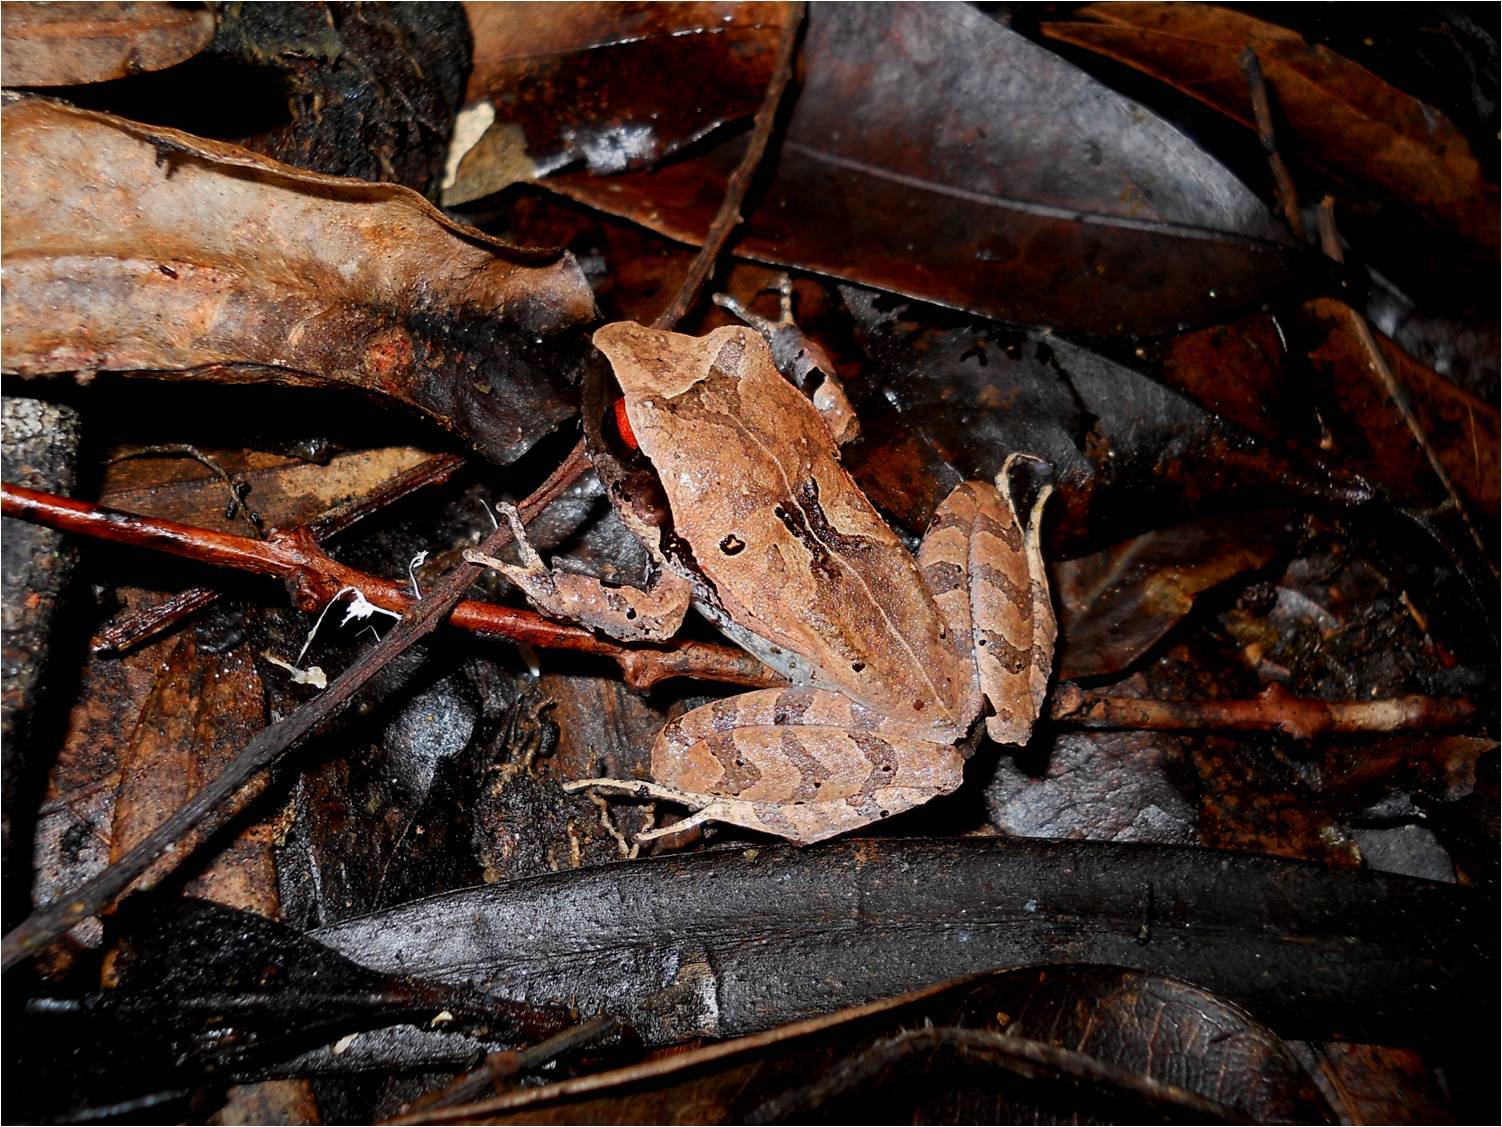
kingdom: Animalia
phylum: Chordata
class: Amphibia
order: Anura
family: Craugastoridae
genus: Craugastor
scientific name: Craugastor laticeps
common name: Broad-headed cave frog
